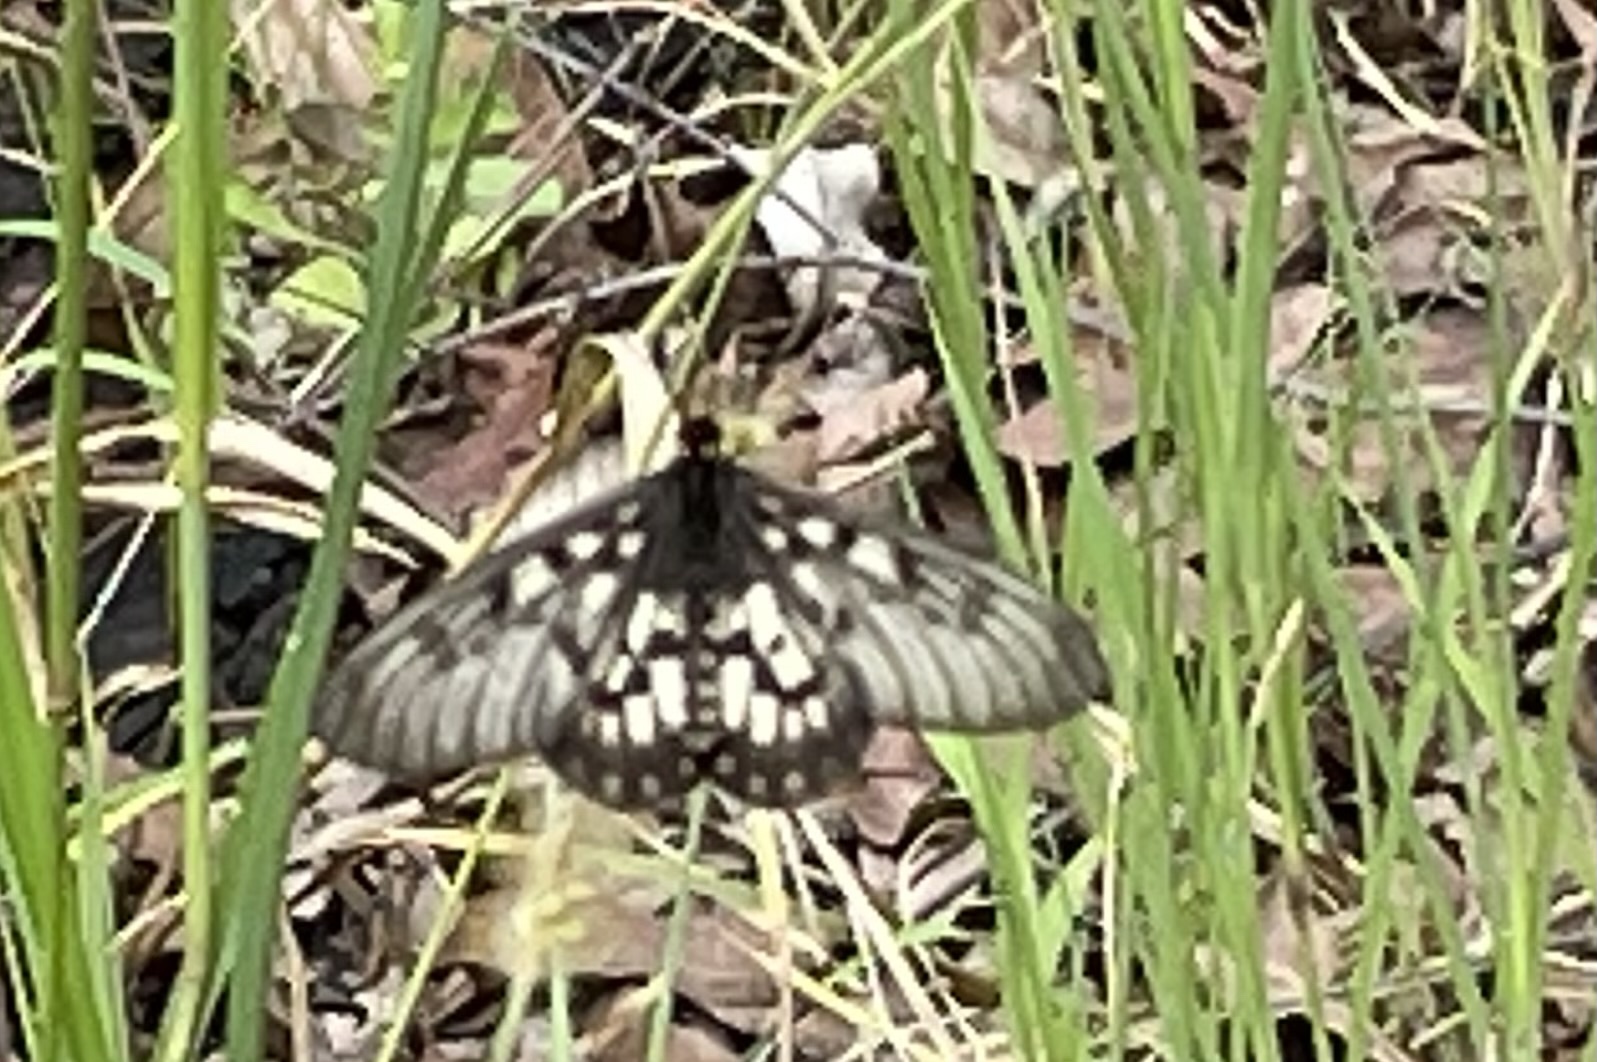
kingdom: Animalia
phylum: Arthropoda
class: Insecta
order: Lepidoptera
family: Nymphalidae
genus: Acraea
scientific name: Acraea andromacha
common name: Glasswing
